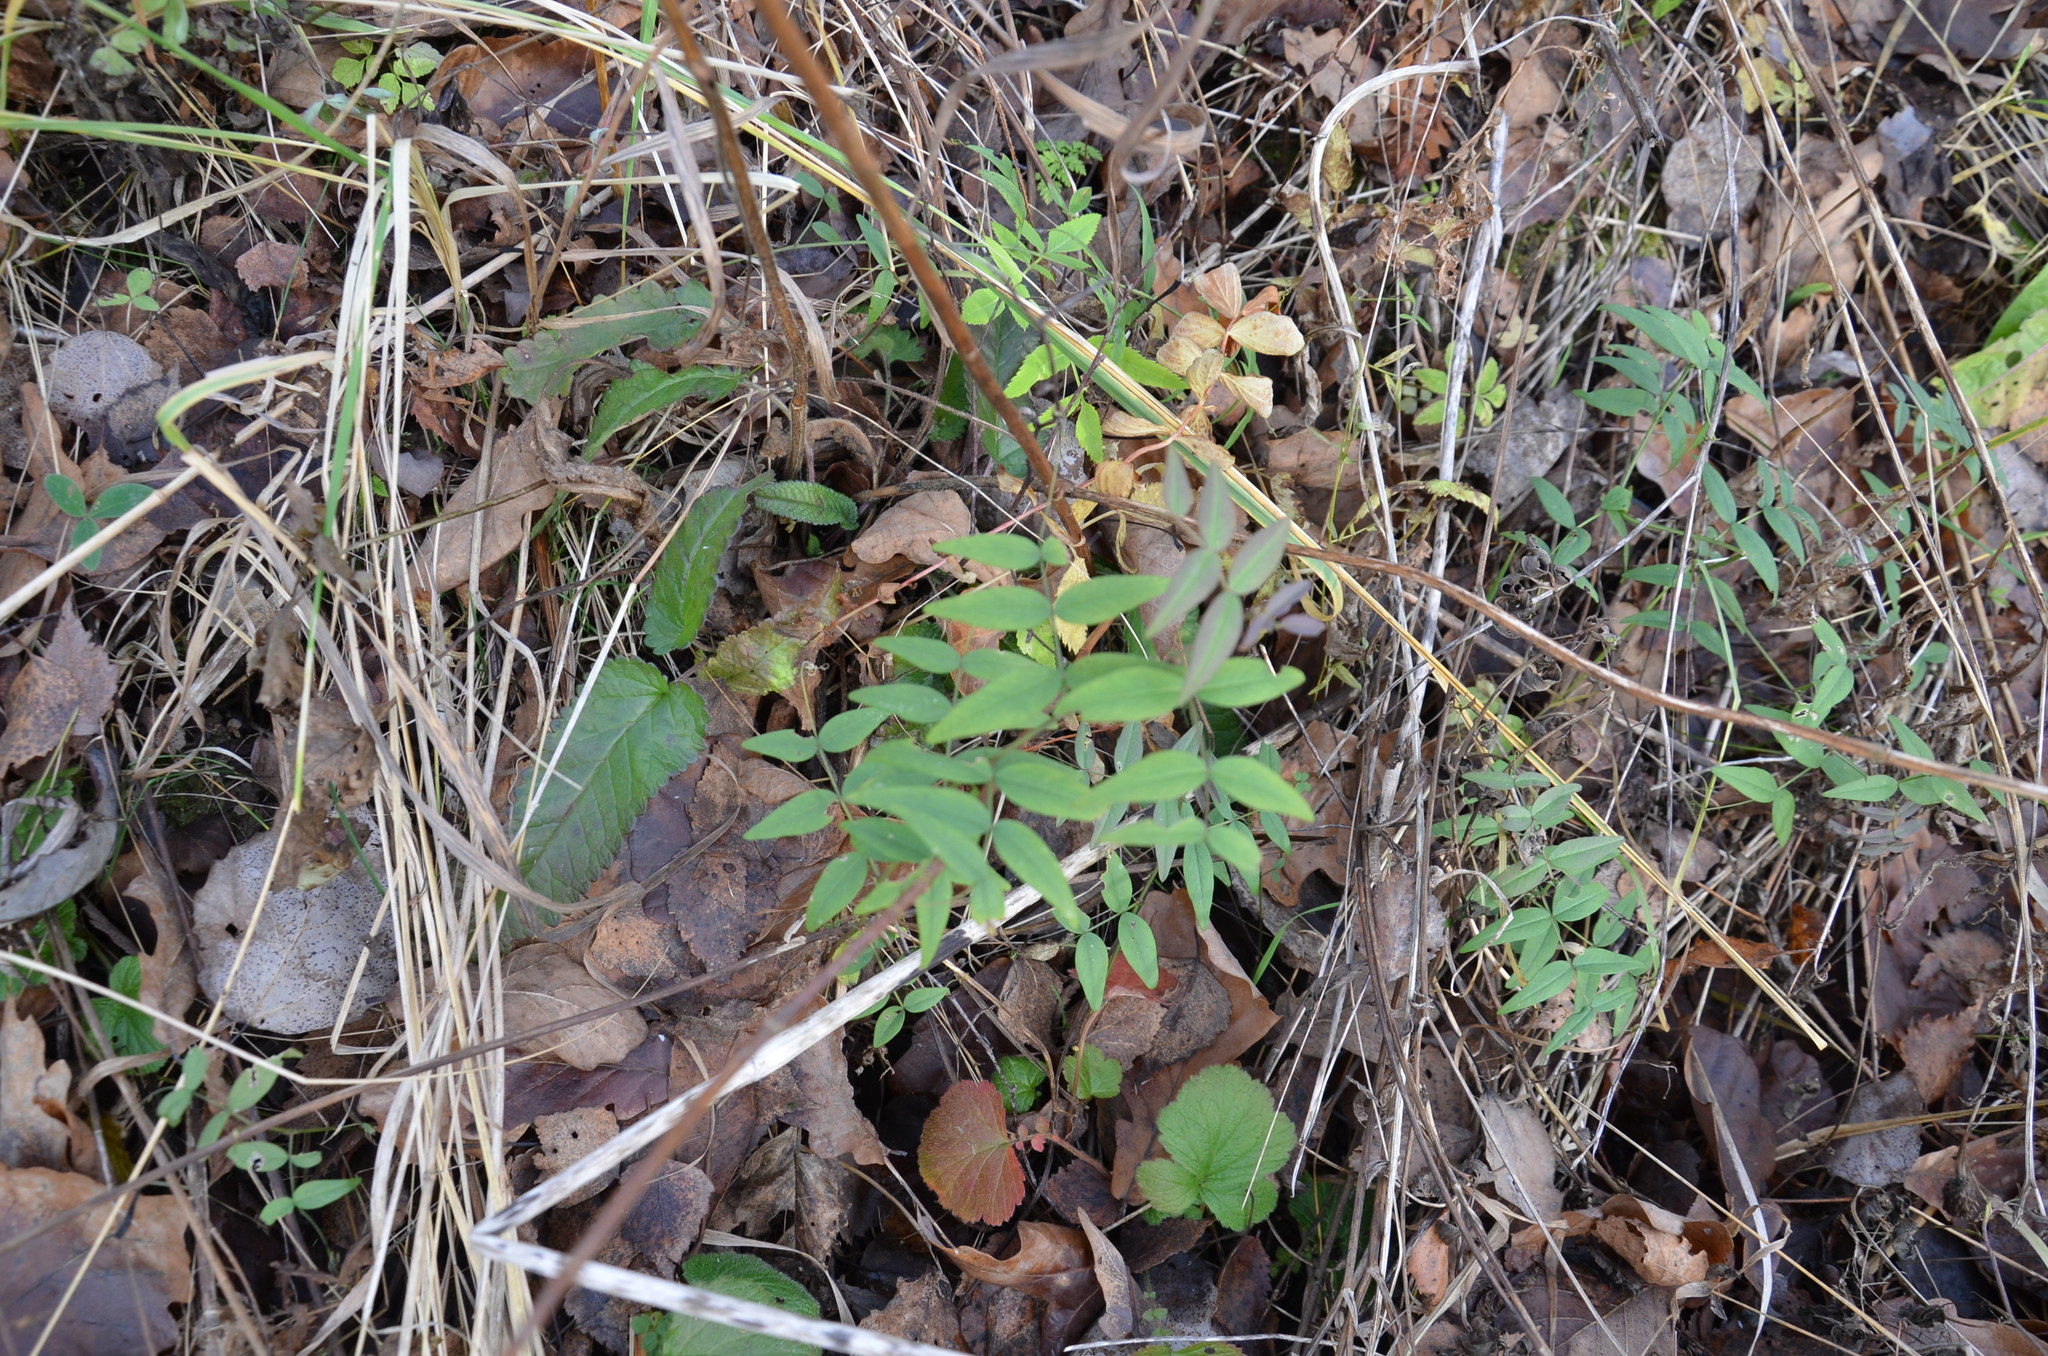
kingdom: Plantae
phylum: Tracheophyta
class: Magnoliopsida
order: Fabales
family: Fabaceae
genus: Vicia
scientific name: Vicia sepium
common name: Bush vetch
